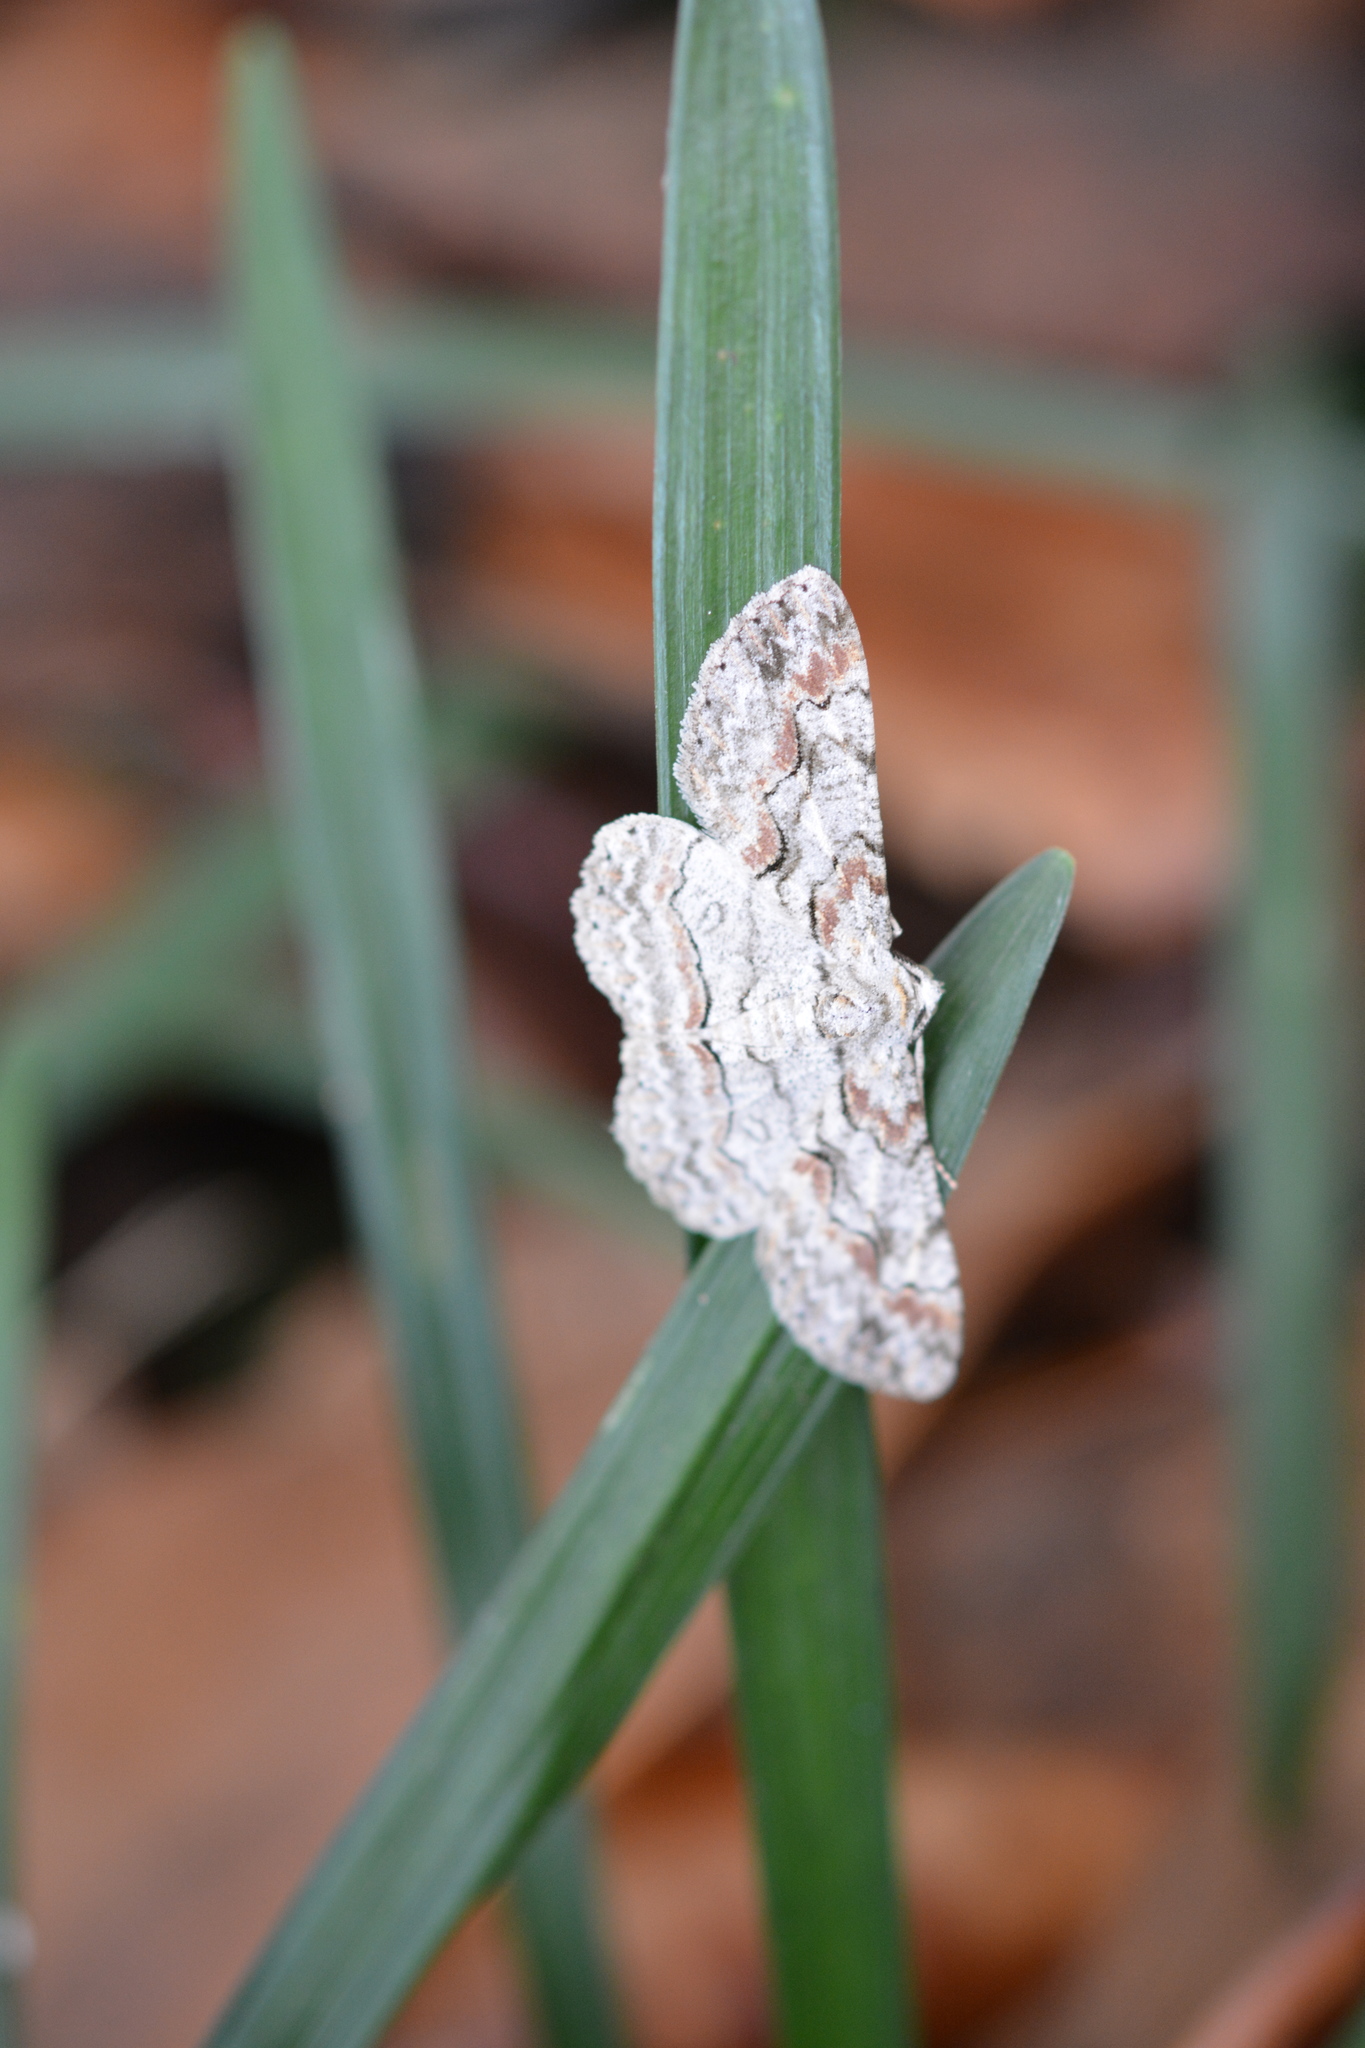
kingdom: Animalia
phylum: Arthropoda
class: Insecta
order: Lepidoptera
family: Geometridae
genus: Iridopsis
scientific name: Iridopsis defectaria
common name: Brown-shaded gray
